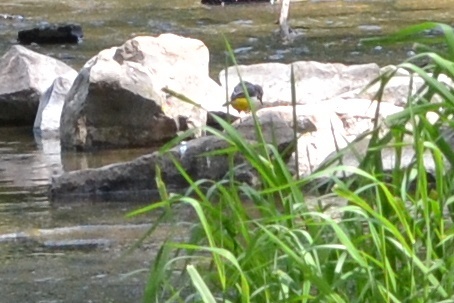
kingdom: Animalia
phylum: Chordata
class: Aves
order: Passeriformes
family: Motacillidae
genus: Motacilla
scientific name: Motacilla cinerea
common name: Grey wagtail
